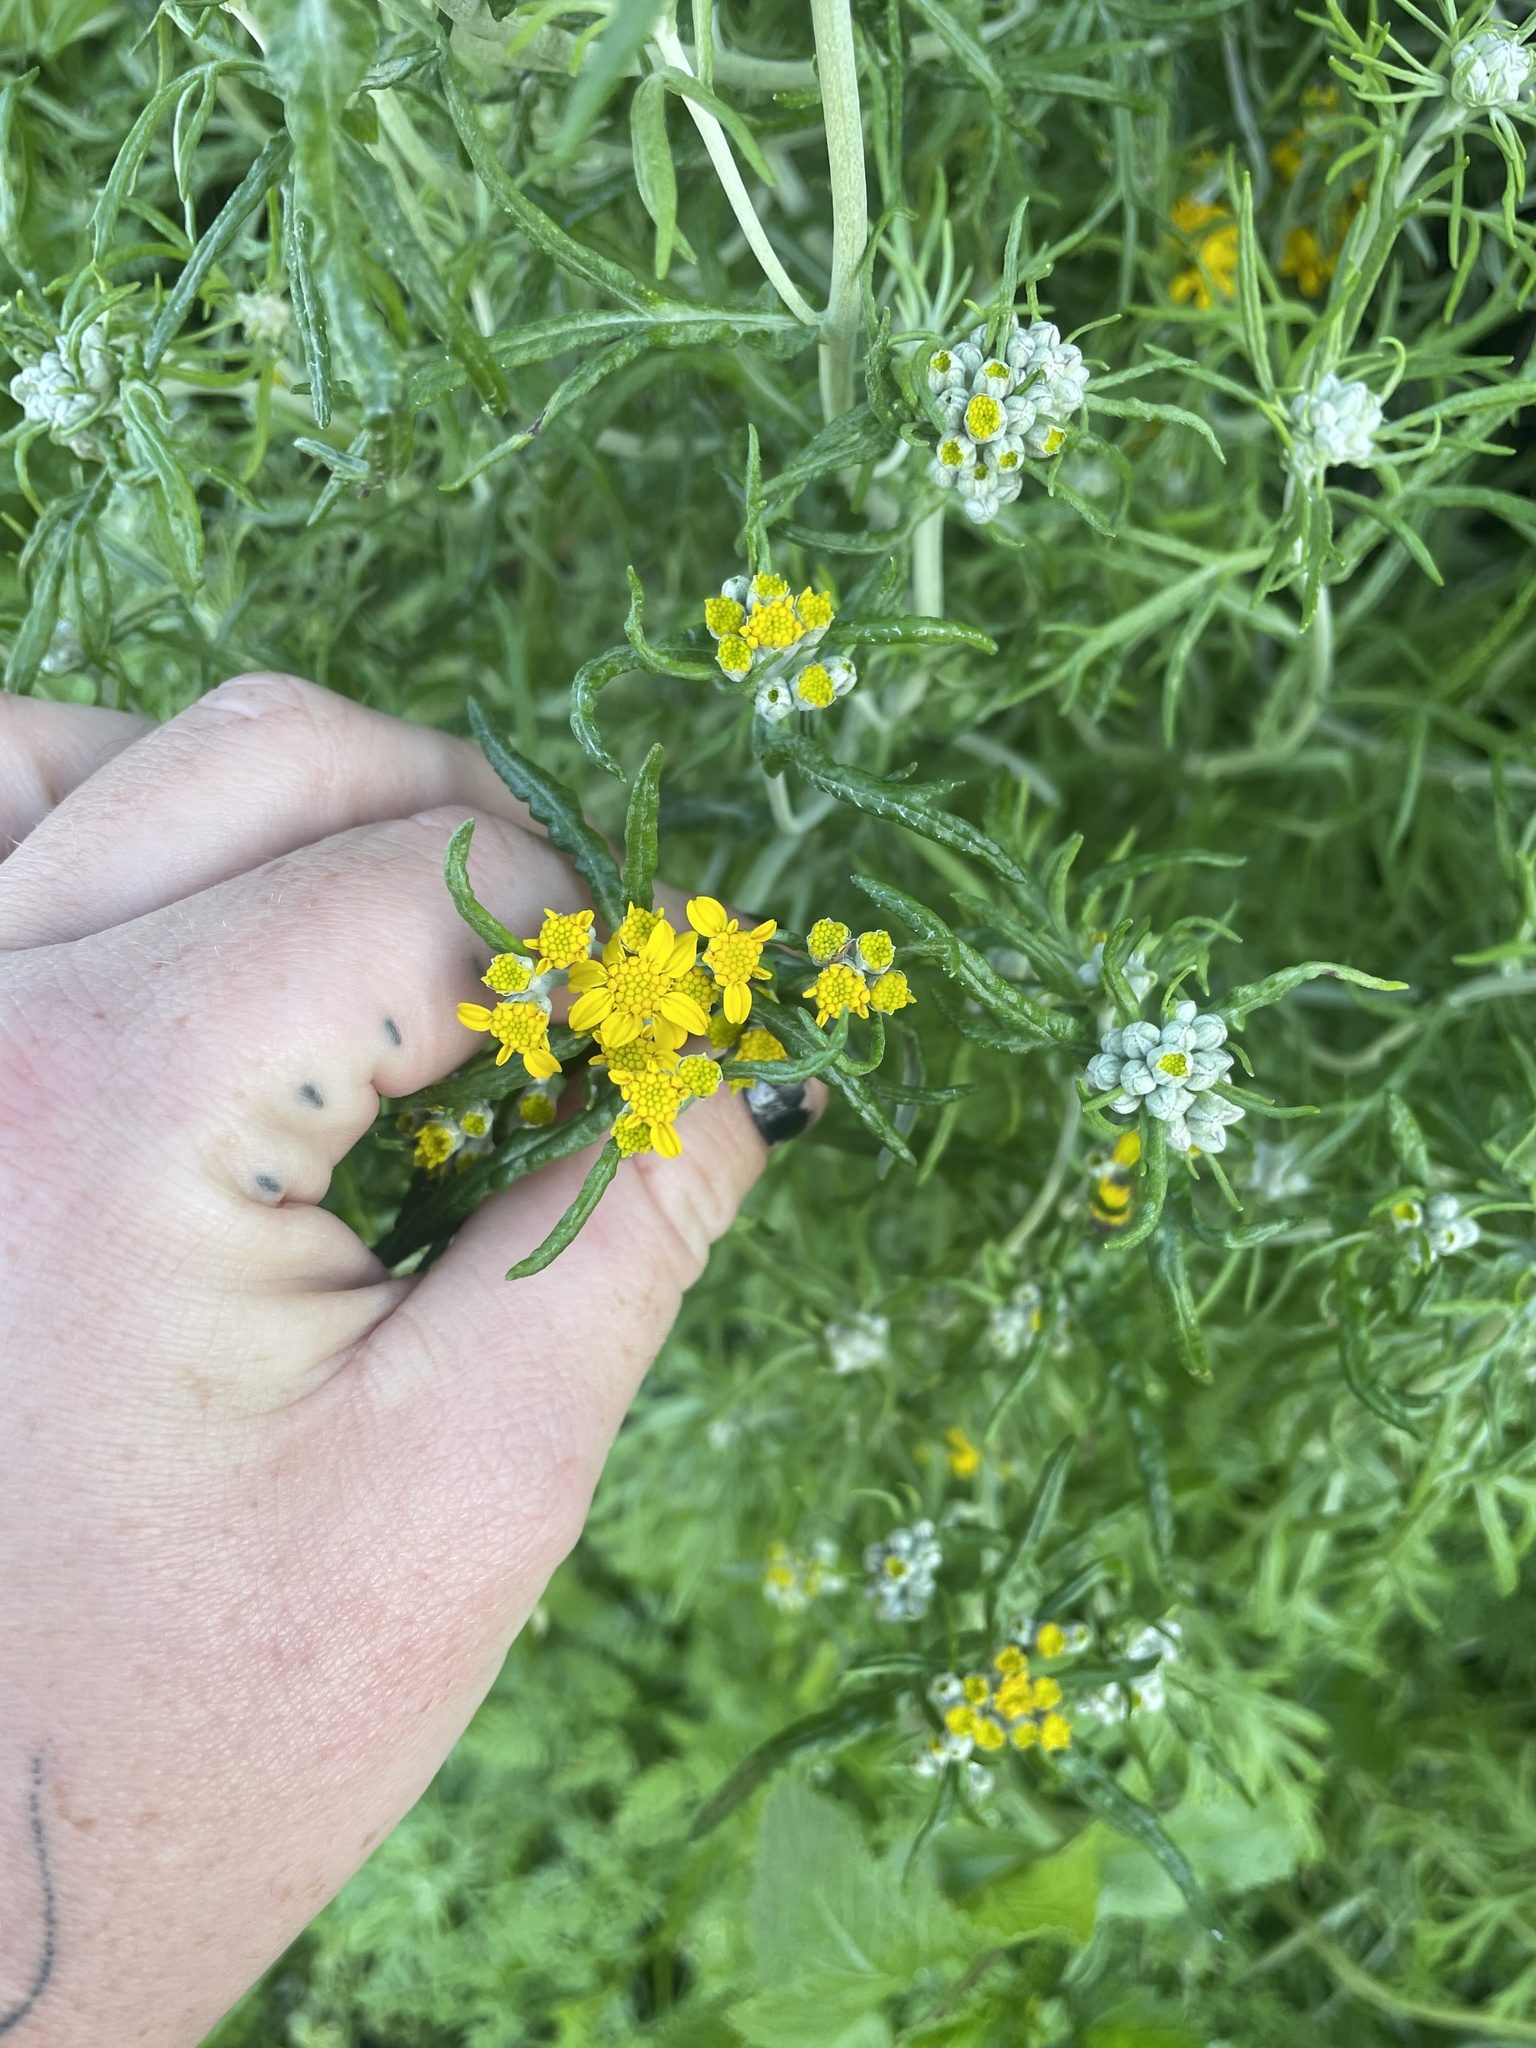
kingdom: Plantae
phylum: Tracheophyta
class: Magnoliopsida
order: Asterales
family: Asteraceae
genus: Eriophyllum
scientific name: Eriophyllum confertiflorum
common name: Golden-yarrow
